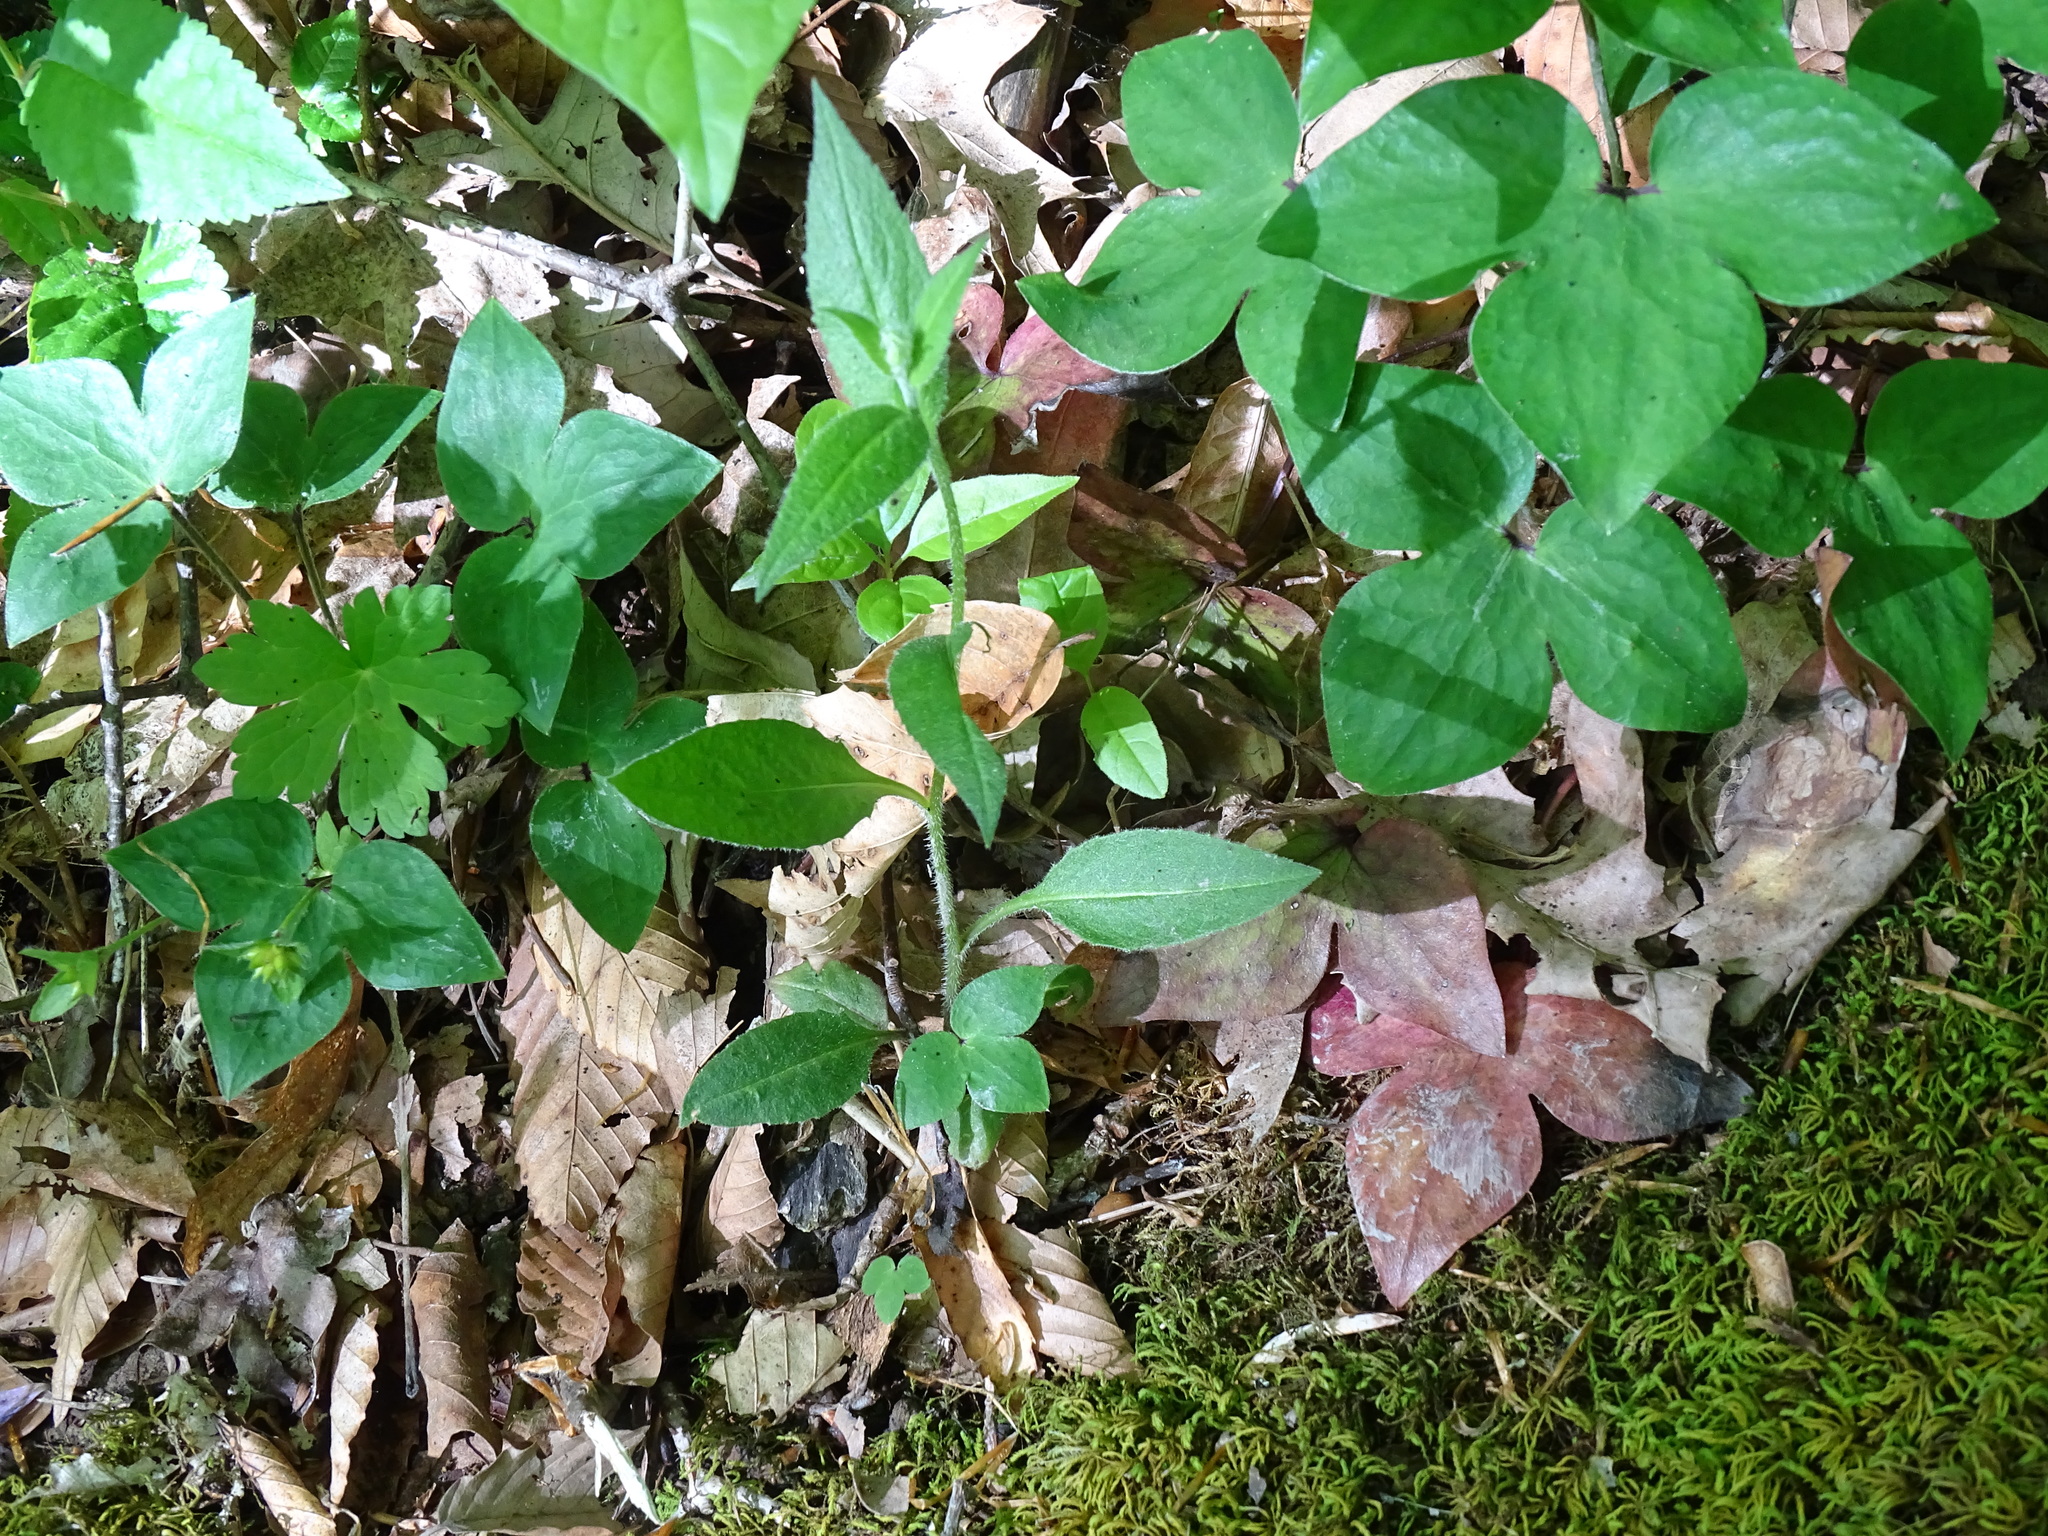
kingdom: Plantae
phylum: Tracheophyta
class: Magnoliopsida
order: Brassicales
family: Brassicaceae
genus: Hesperis
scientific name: Hesperis matronalis
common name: Dame's-violet
